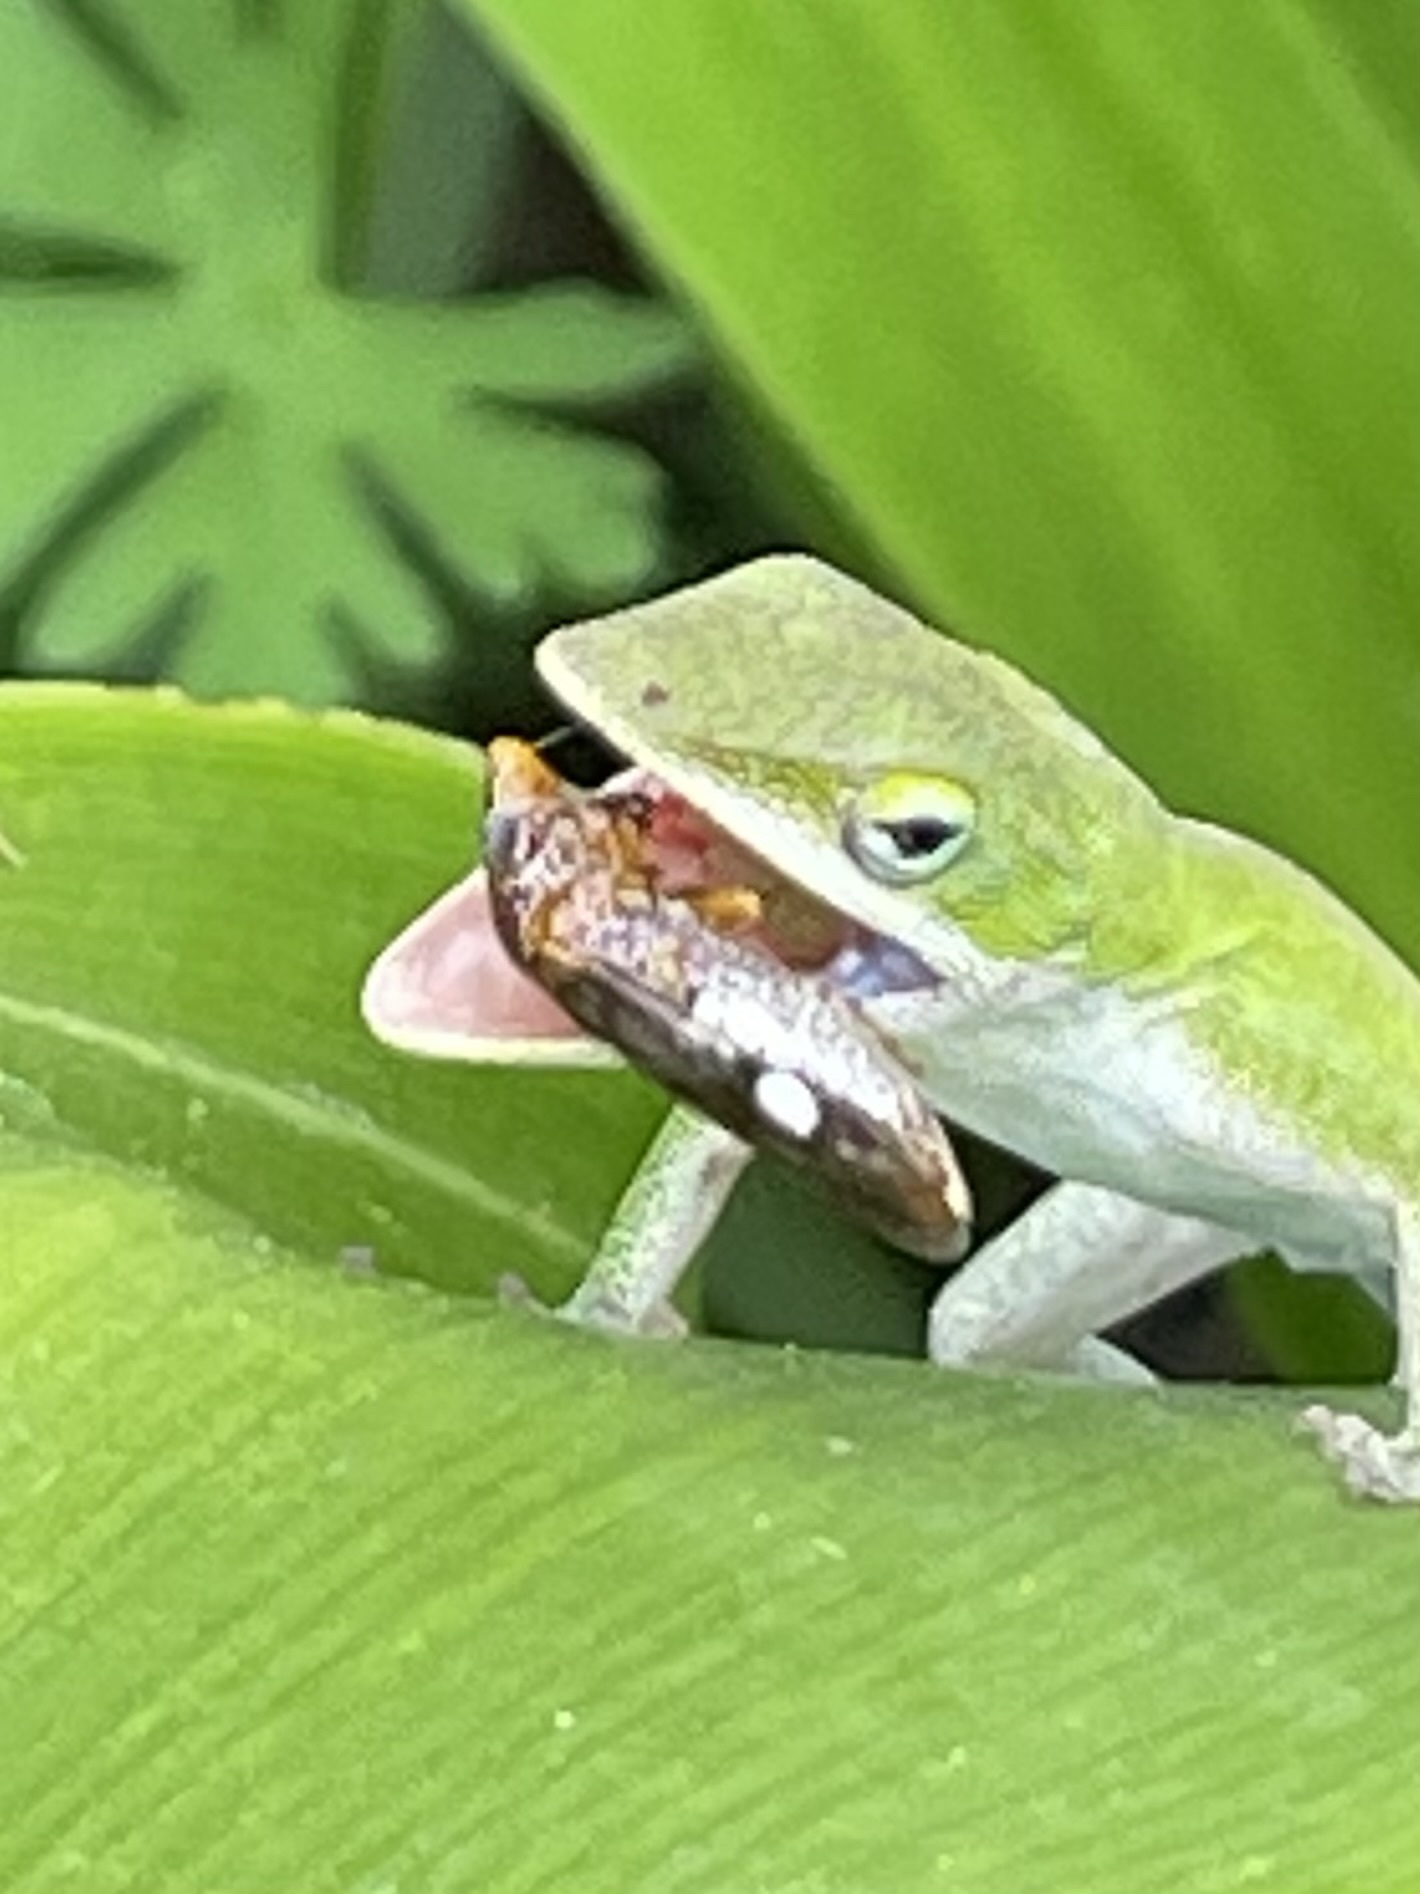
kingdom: Animalia
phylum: Arthropoda
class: Insecta
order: Hemiptera
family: Cicadellidae
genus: Homalodisca
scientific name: Homalodisca vitripennis
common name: Glassy-winged sharpshooter
